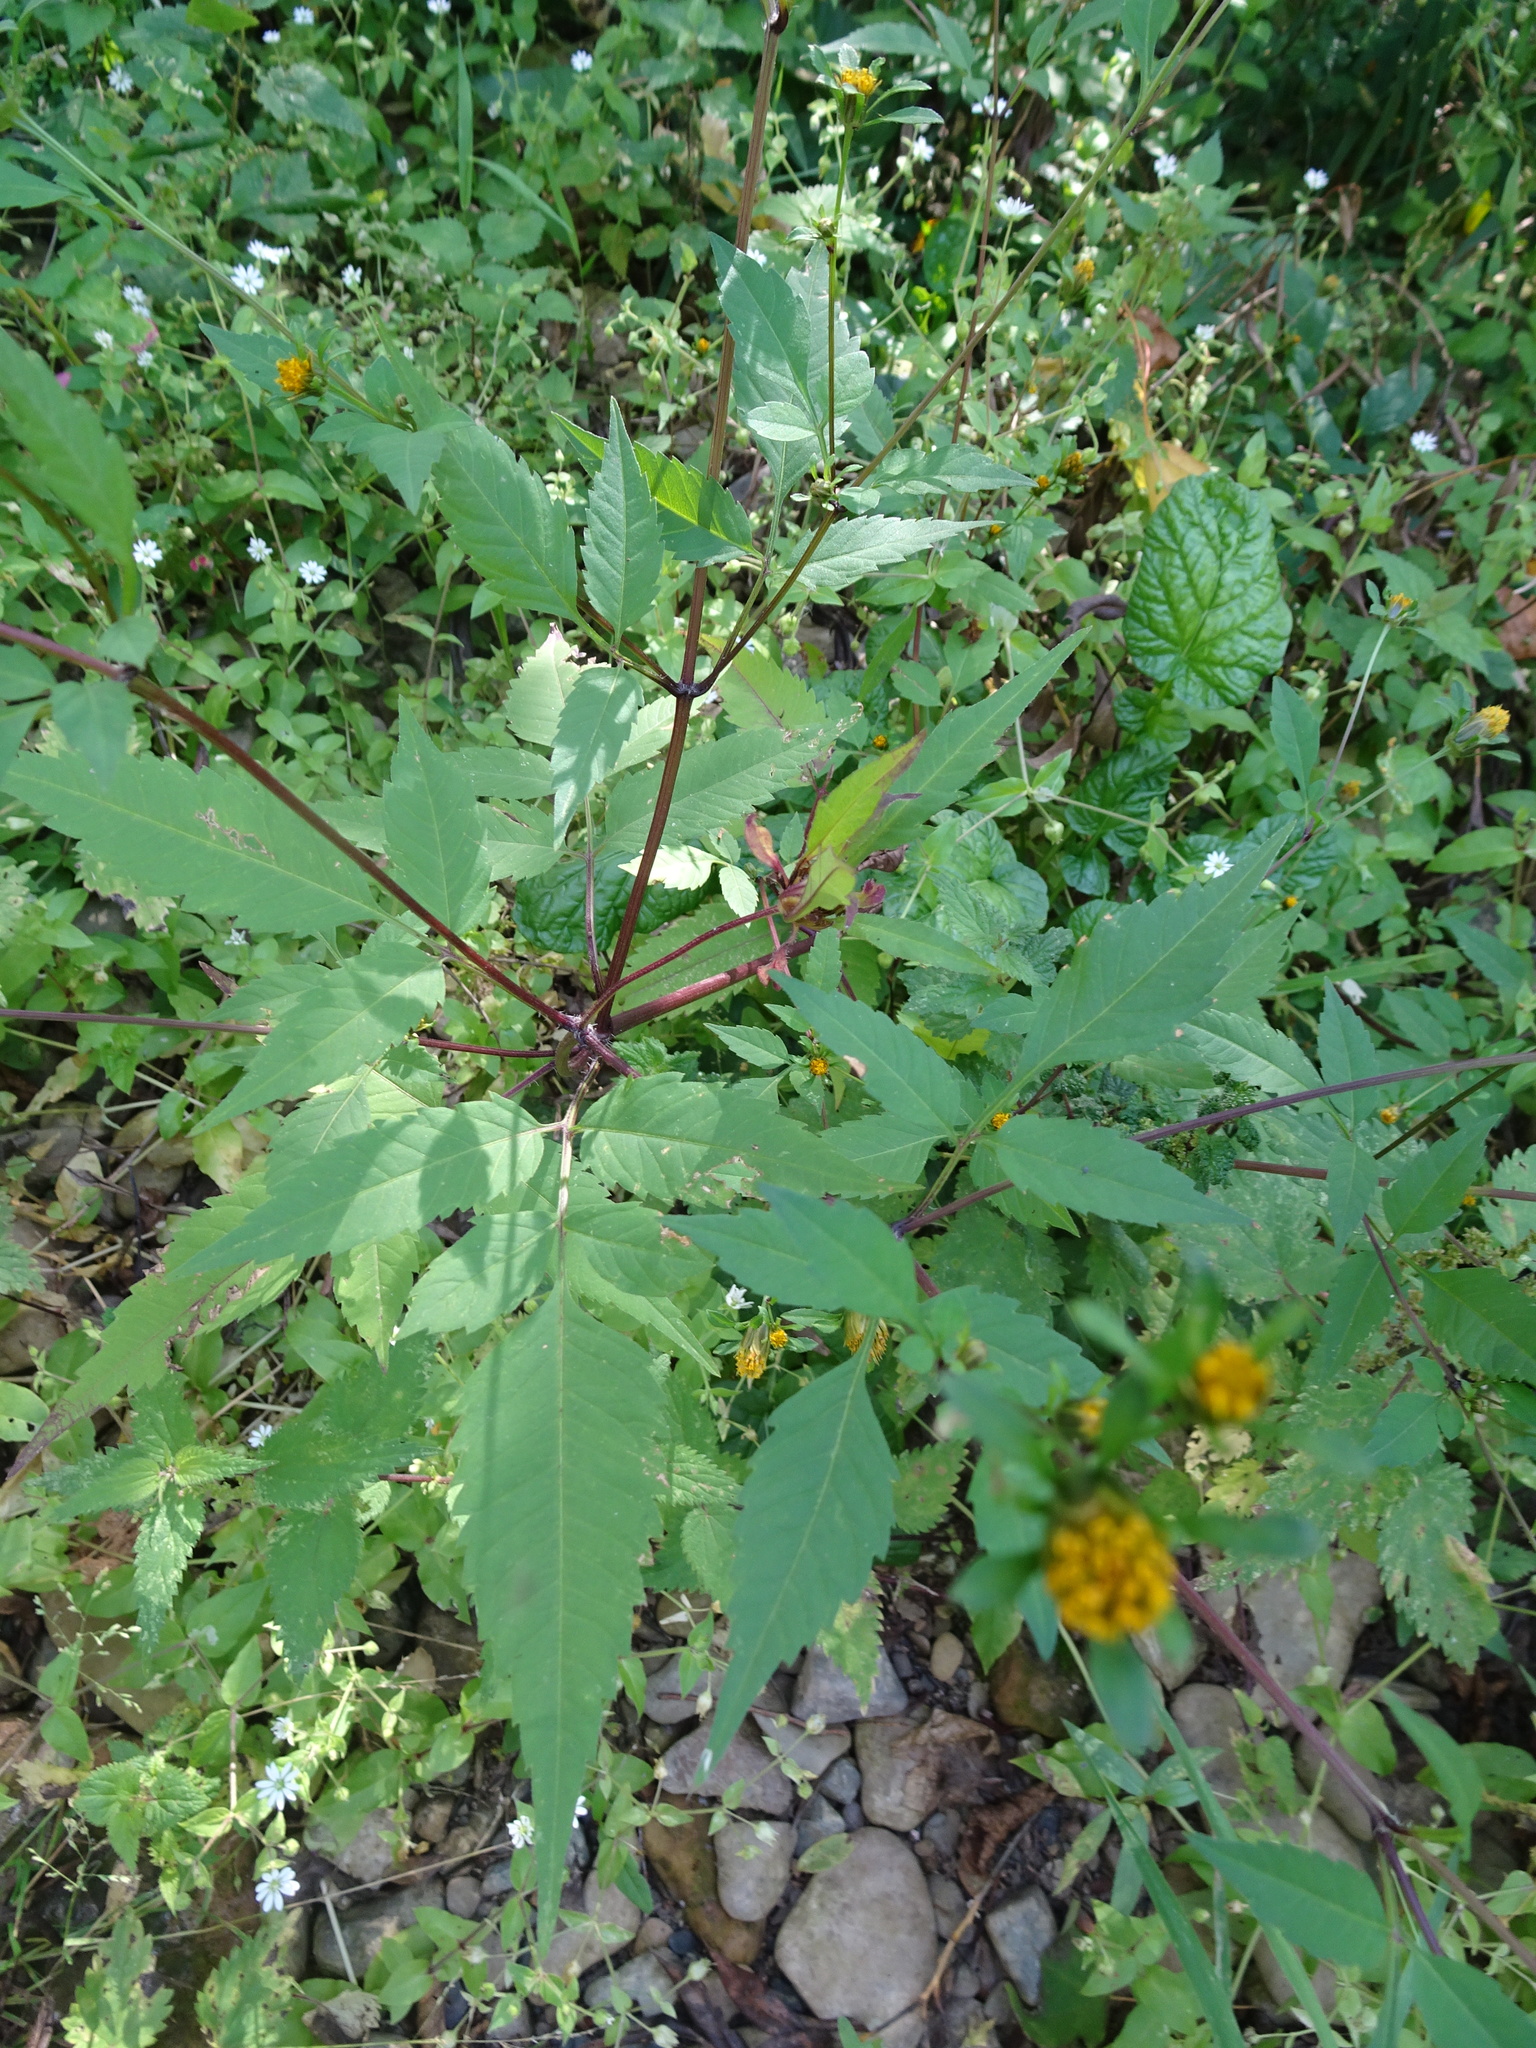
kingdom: Plantae
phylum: Tracheophyta
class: Magnoliopsida
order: Asterales
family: Asteraceae
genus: Bidens
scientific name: Bidens frondosa
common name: Beggarticks
